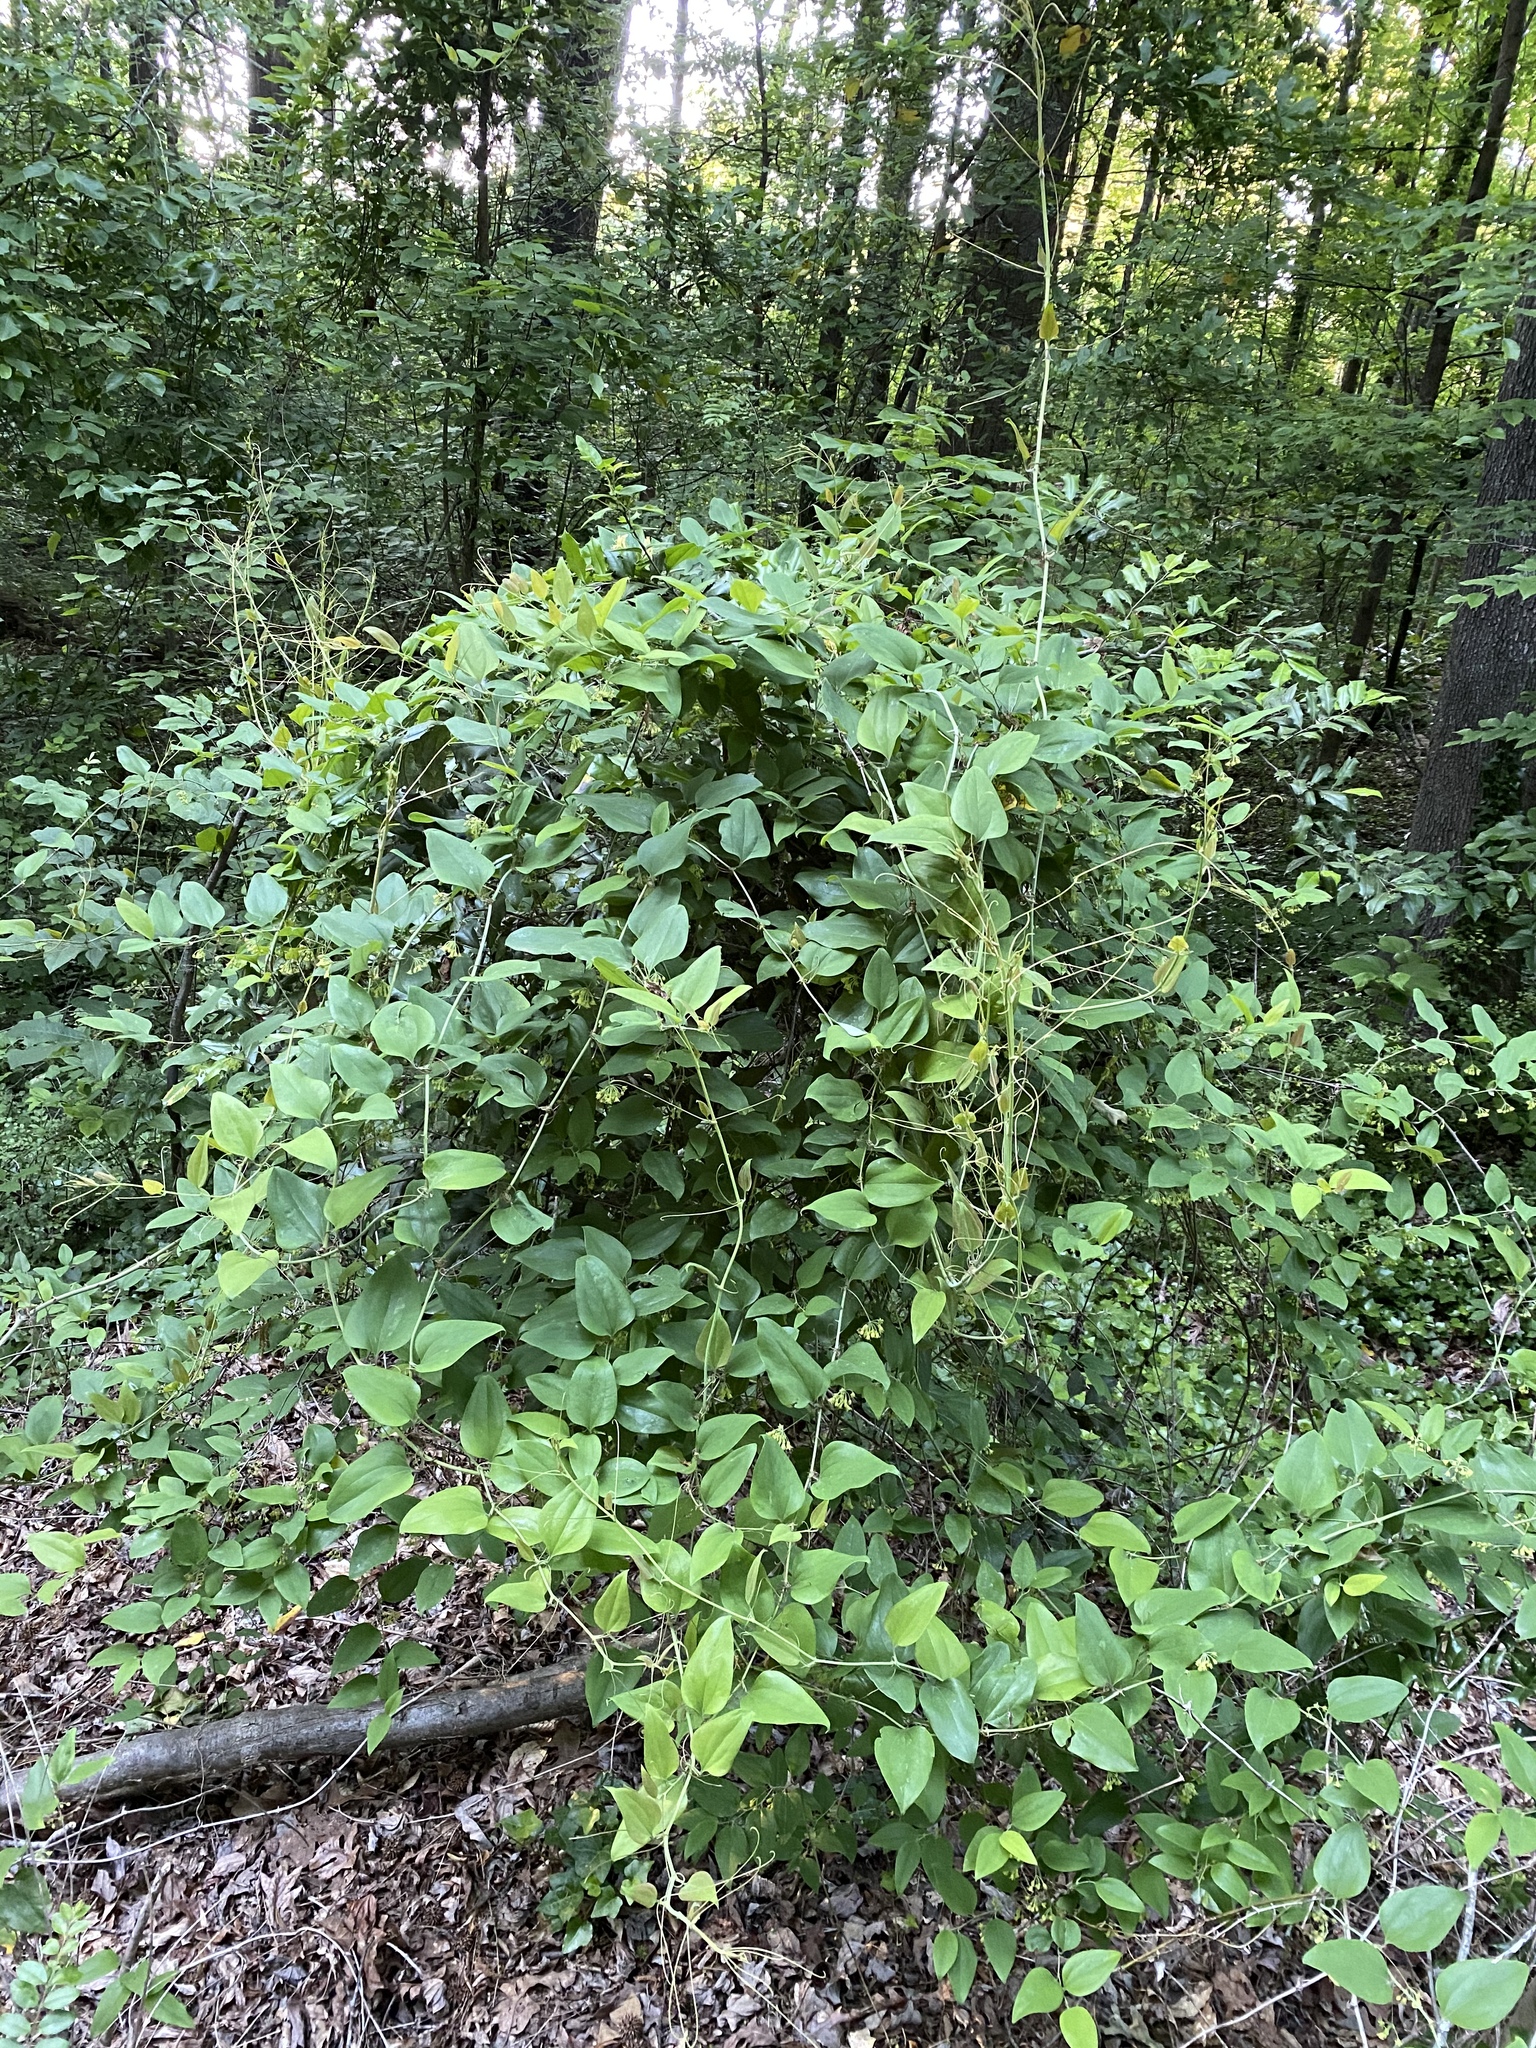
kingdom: Plantae
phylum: Tracheophyta
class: Liliopsida
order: Liliales
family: Smilacaceae
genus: Smilax
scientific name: Smilax glauca
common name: Cat greenbrier
